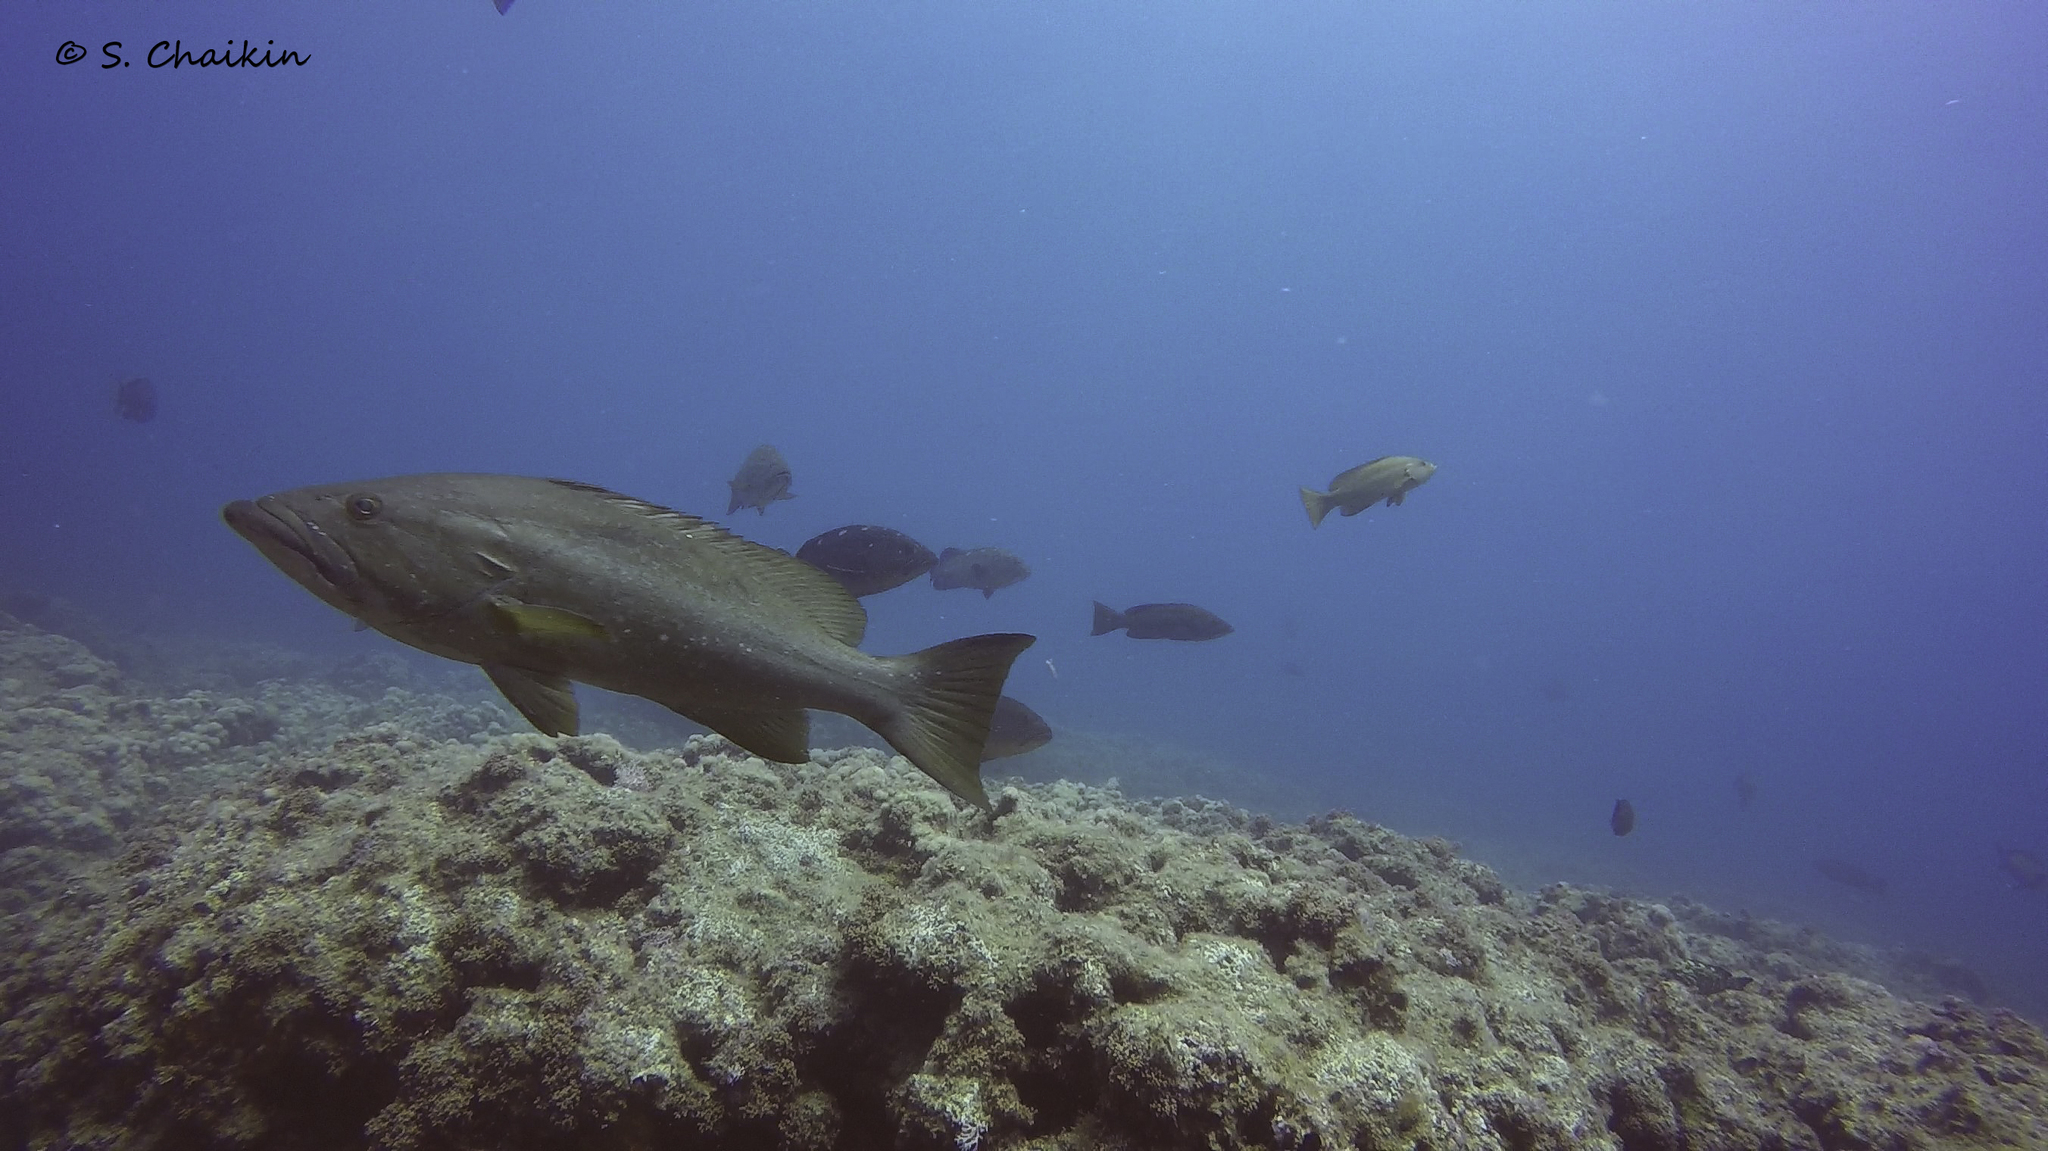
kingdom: Animalia
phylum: Chordata
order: Perciformes
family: Serranidae
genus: Mycteroperca
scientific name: Mycteroperca rubra
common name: Comb grouper
